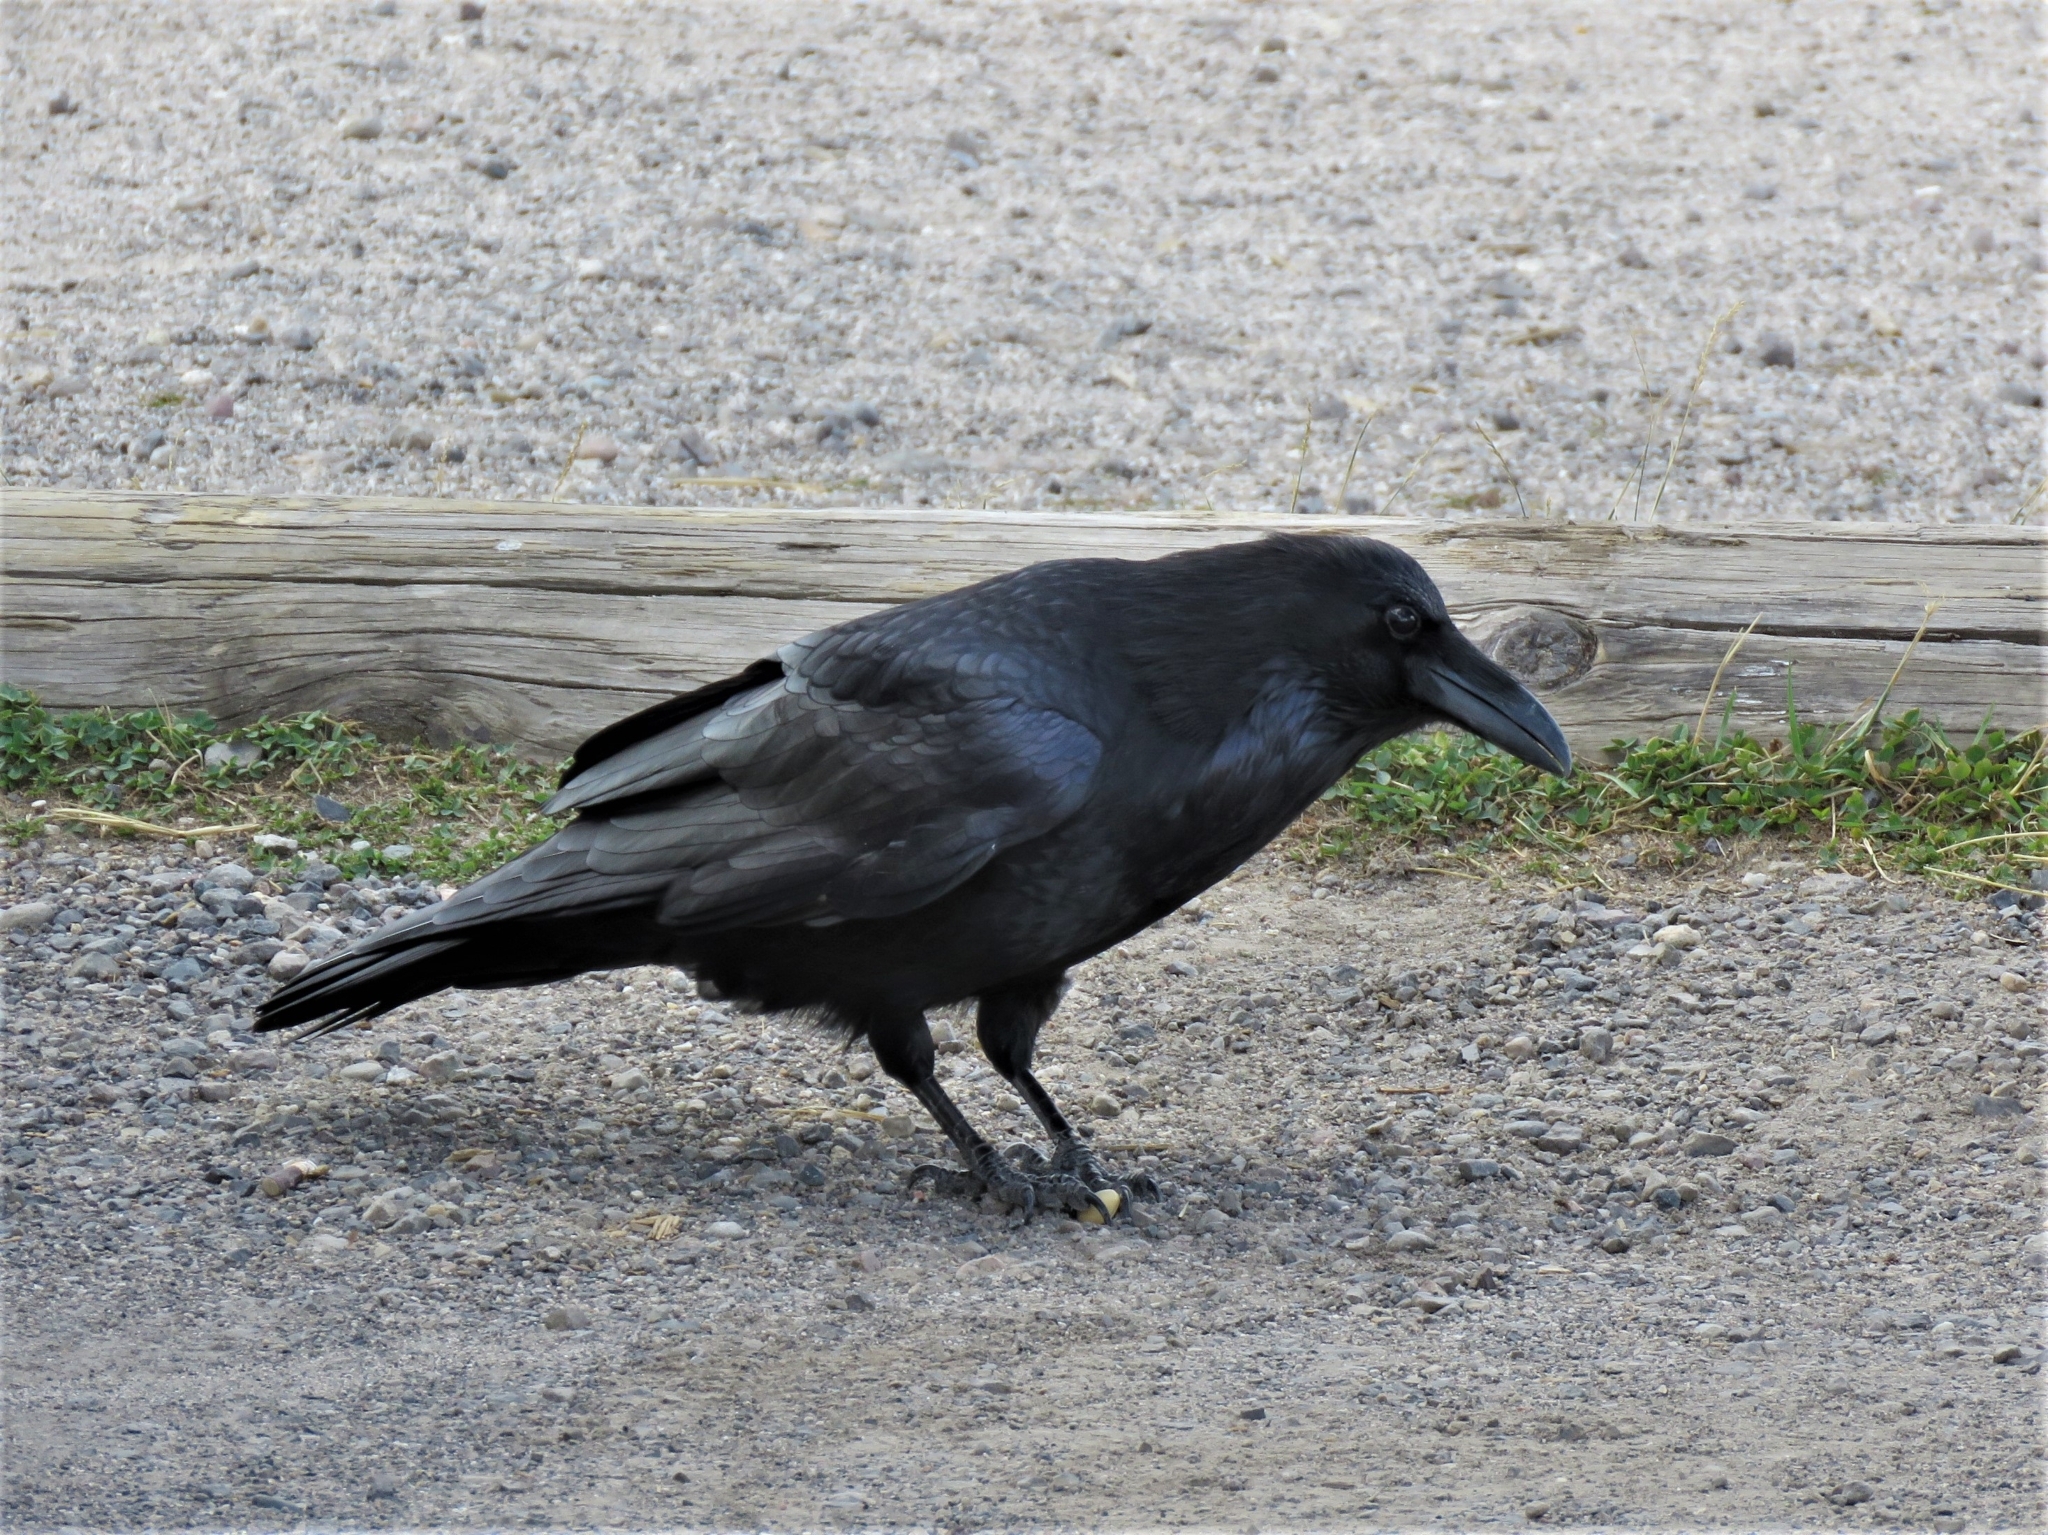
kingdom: Animalia
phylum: Chordata
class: Aves
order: Passeriformes
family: Corvidae
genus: Corvus
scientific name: Corvus corax
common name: Common raven
